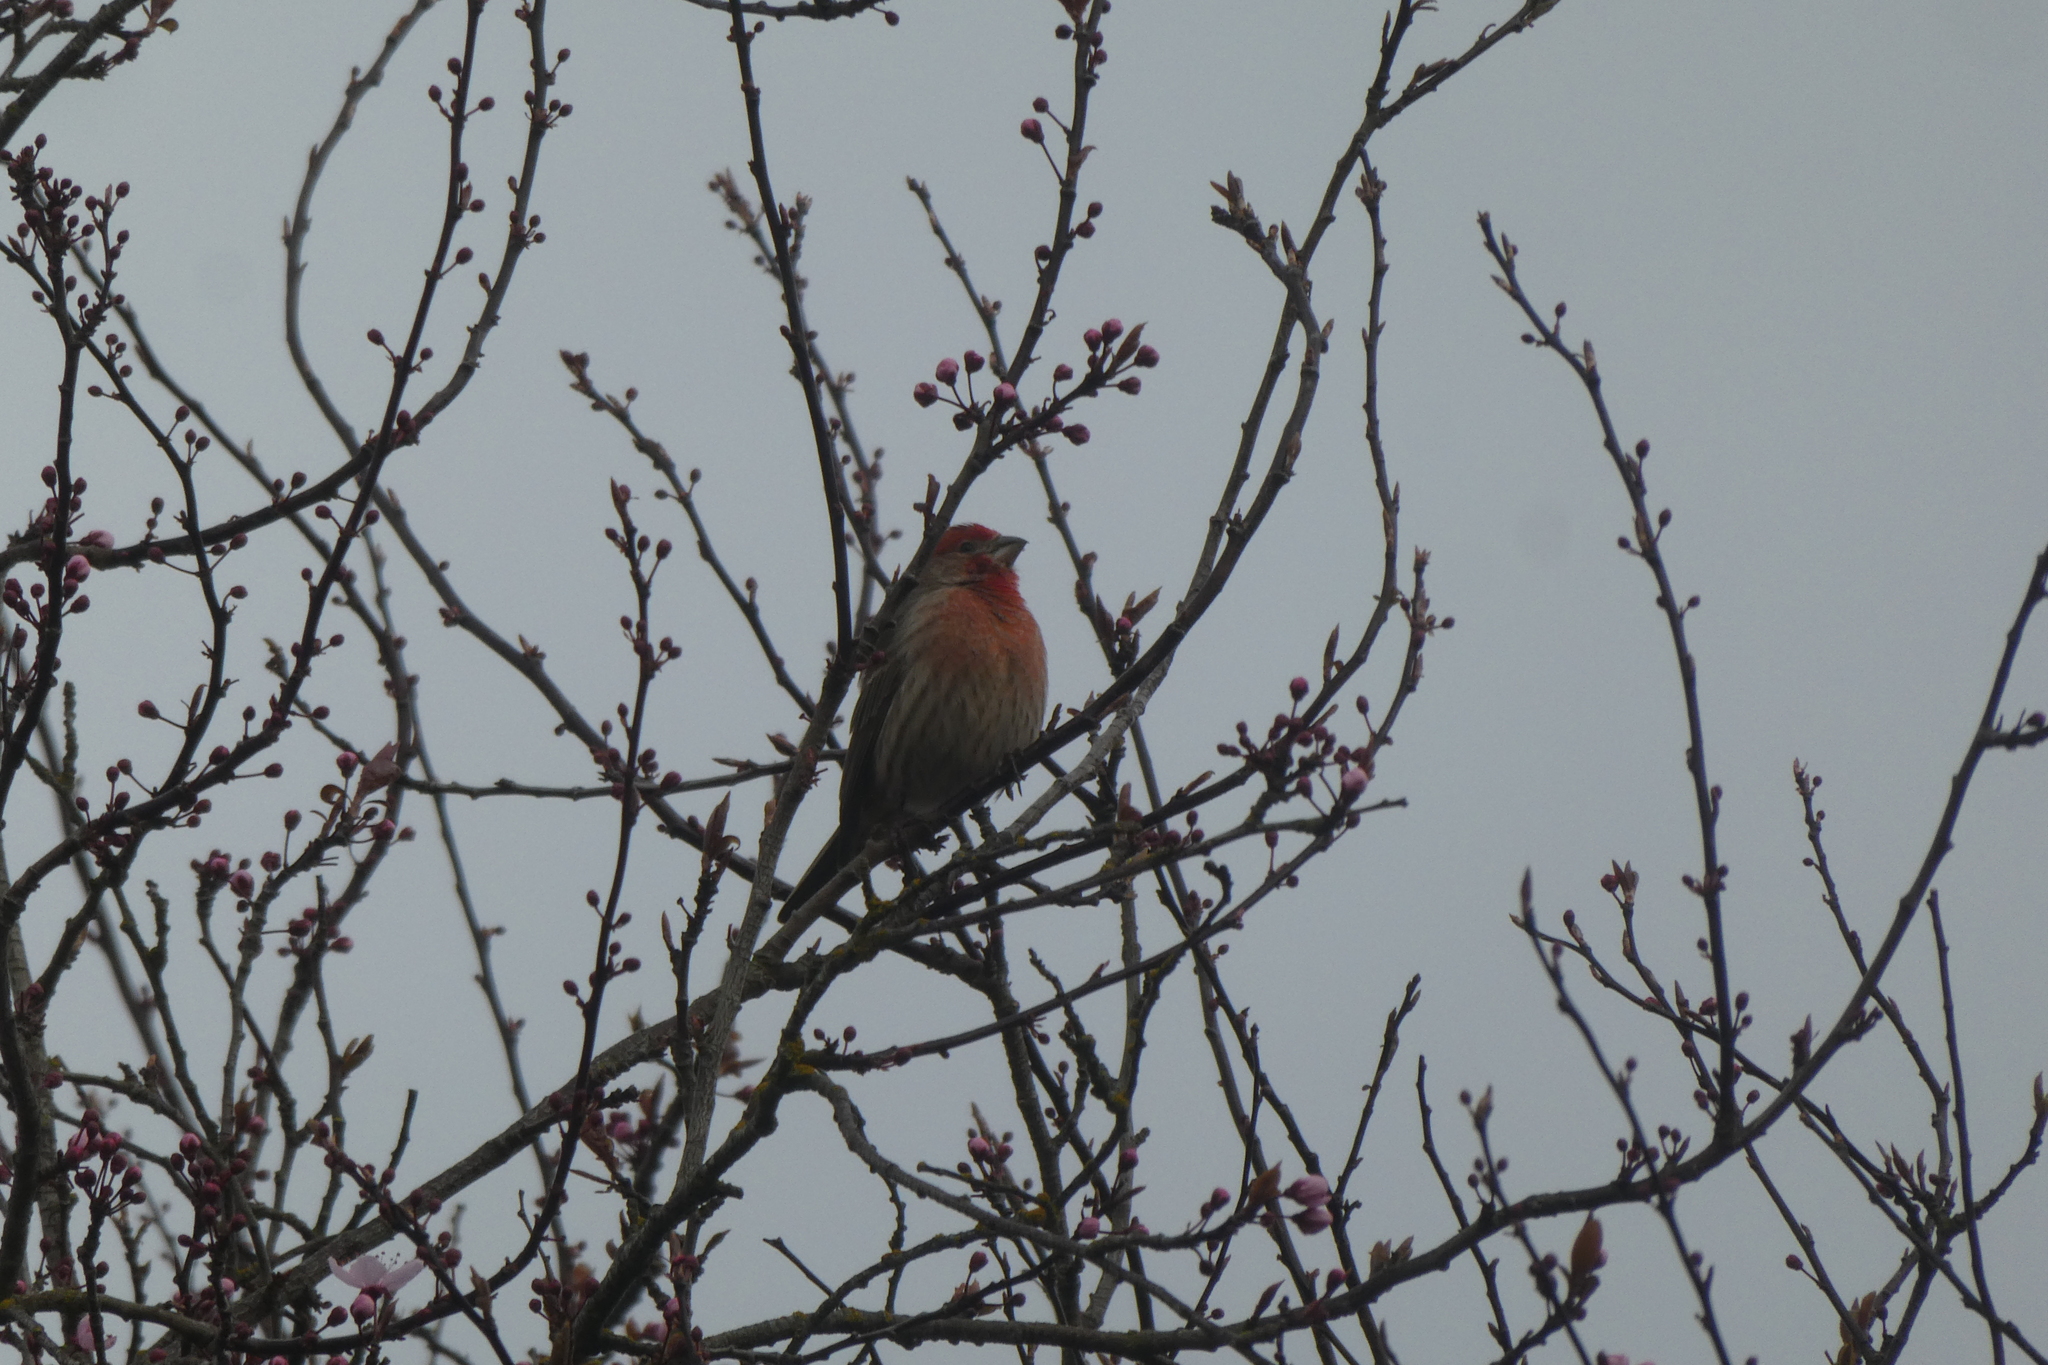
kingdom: Animalia
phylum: Chordata
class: Aves
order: Passeriformes
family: Fringillidae
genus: Haemorhous
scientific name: Haemorhous mexicanus
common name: House finch
